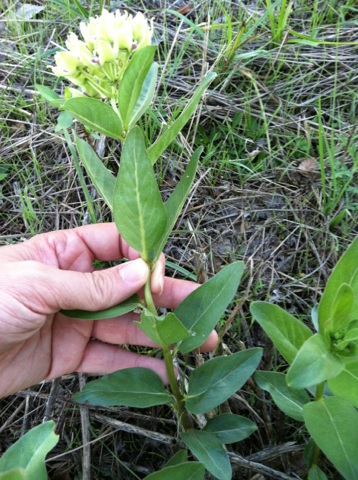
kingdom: Plantae
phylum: Tracheophyta
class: Magnoliopsida
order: Gentianales
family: Apocynaceae
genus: Asclepias
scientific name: Asclepias viridis
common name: Antelope-horns
